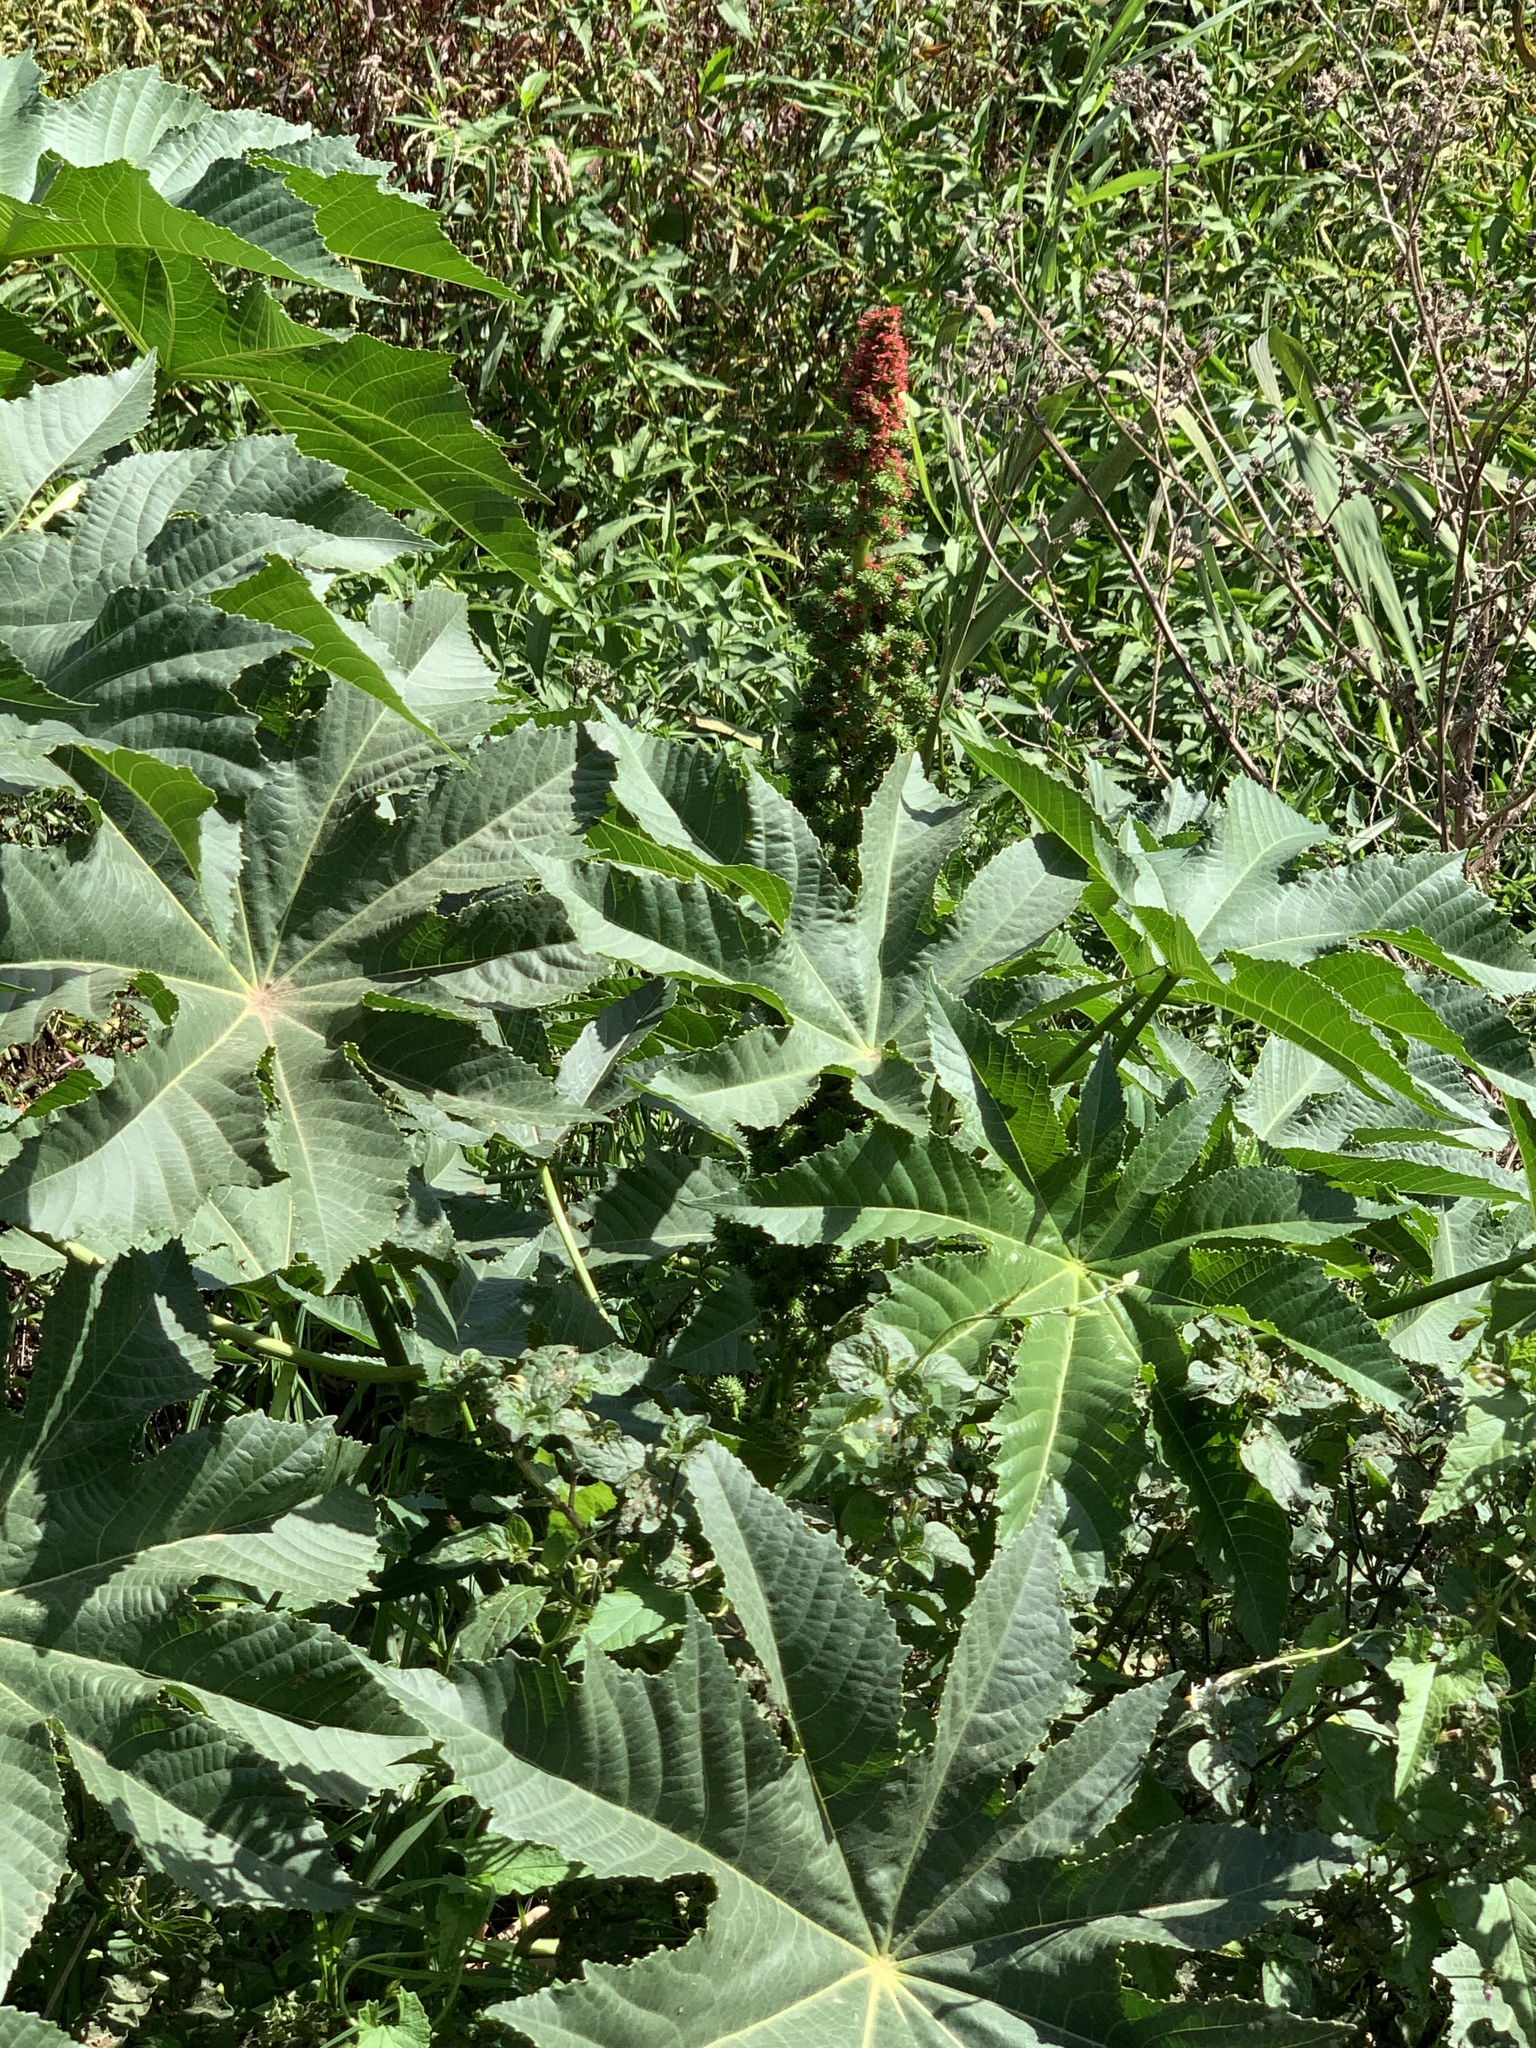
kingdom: Plantae
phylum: Tracheophyta
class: Magnoliopsida
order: Malpighiales
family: Euphorbiaceae
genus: Ricinus
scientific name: Ricinus communis
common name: Castor-oil-plant
